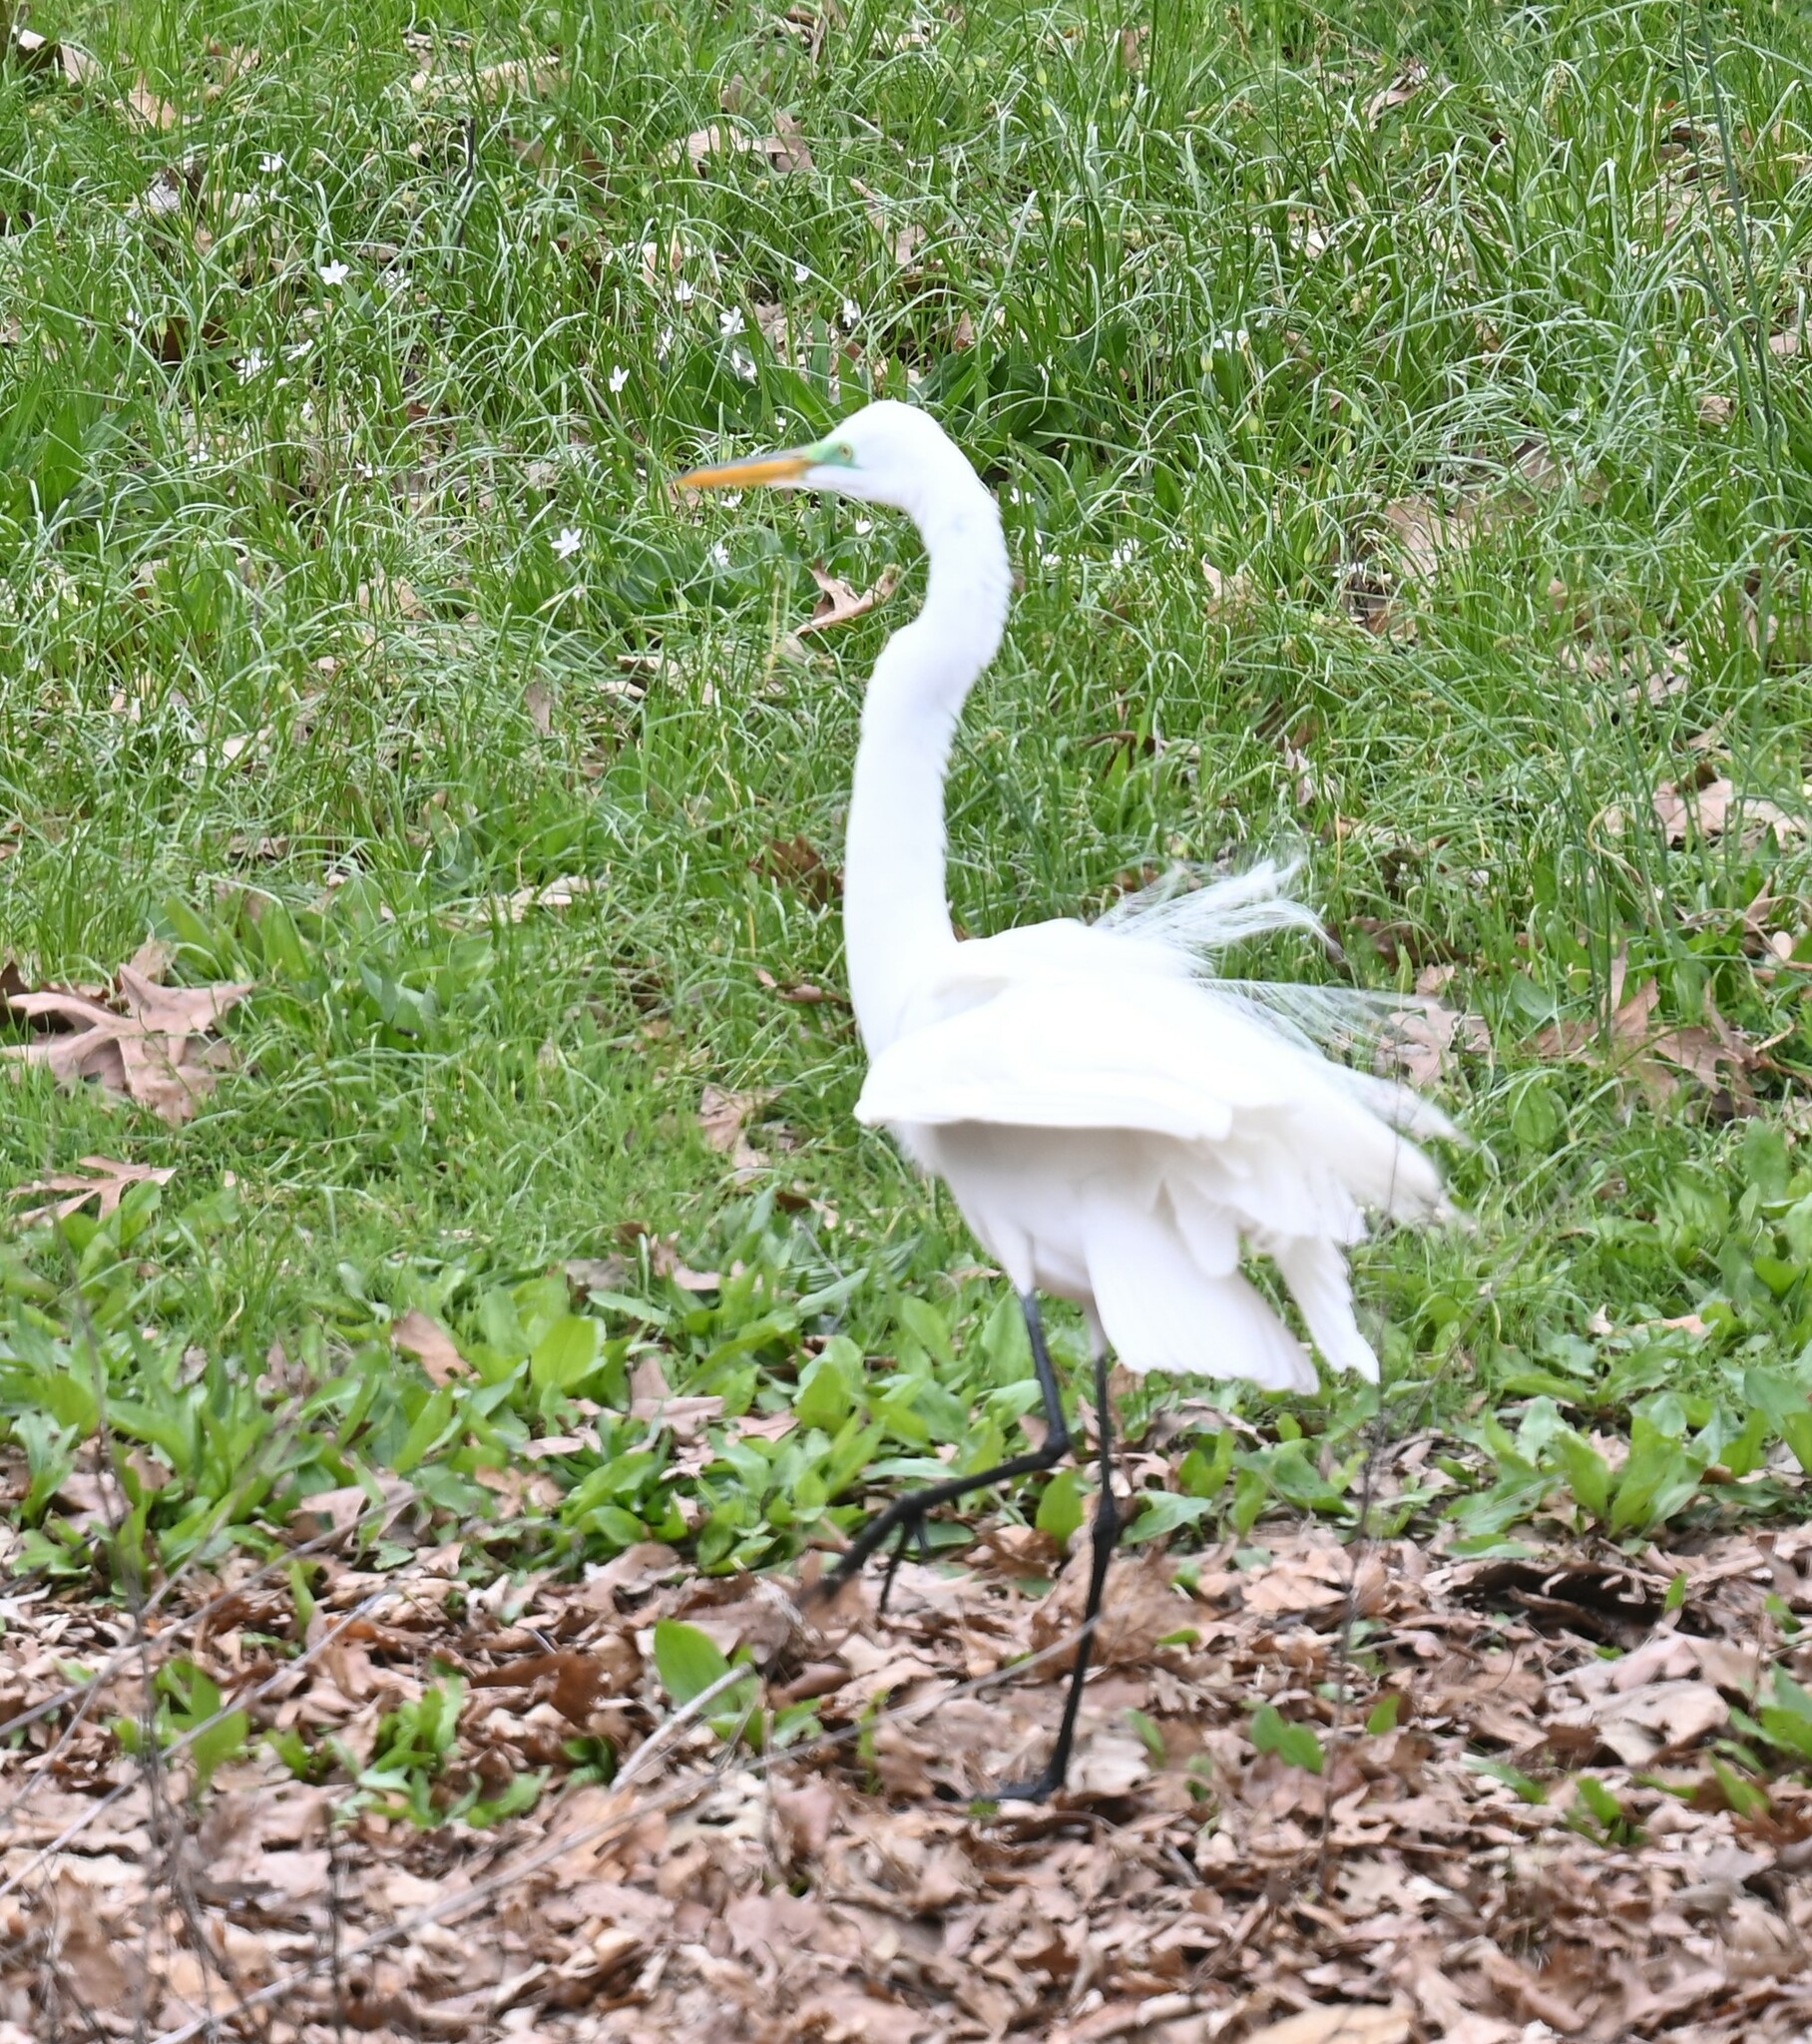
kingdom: Animalia
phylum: Chordata
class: Aves
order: Pelecaniformes
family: Ardeidae
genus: Ardea
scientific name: Ardea alba
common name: Great egret
